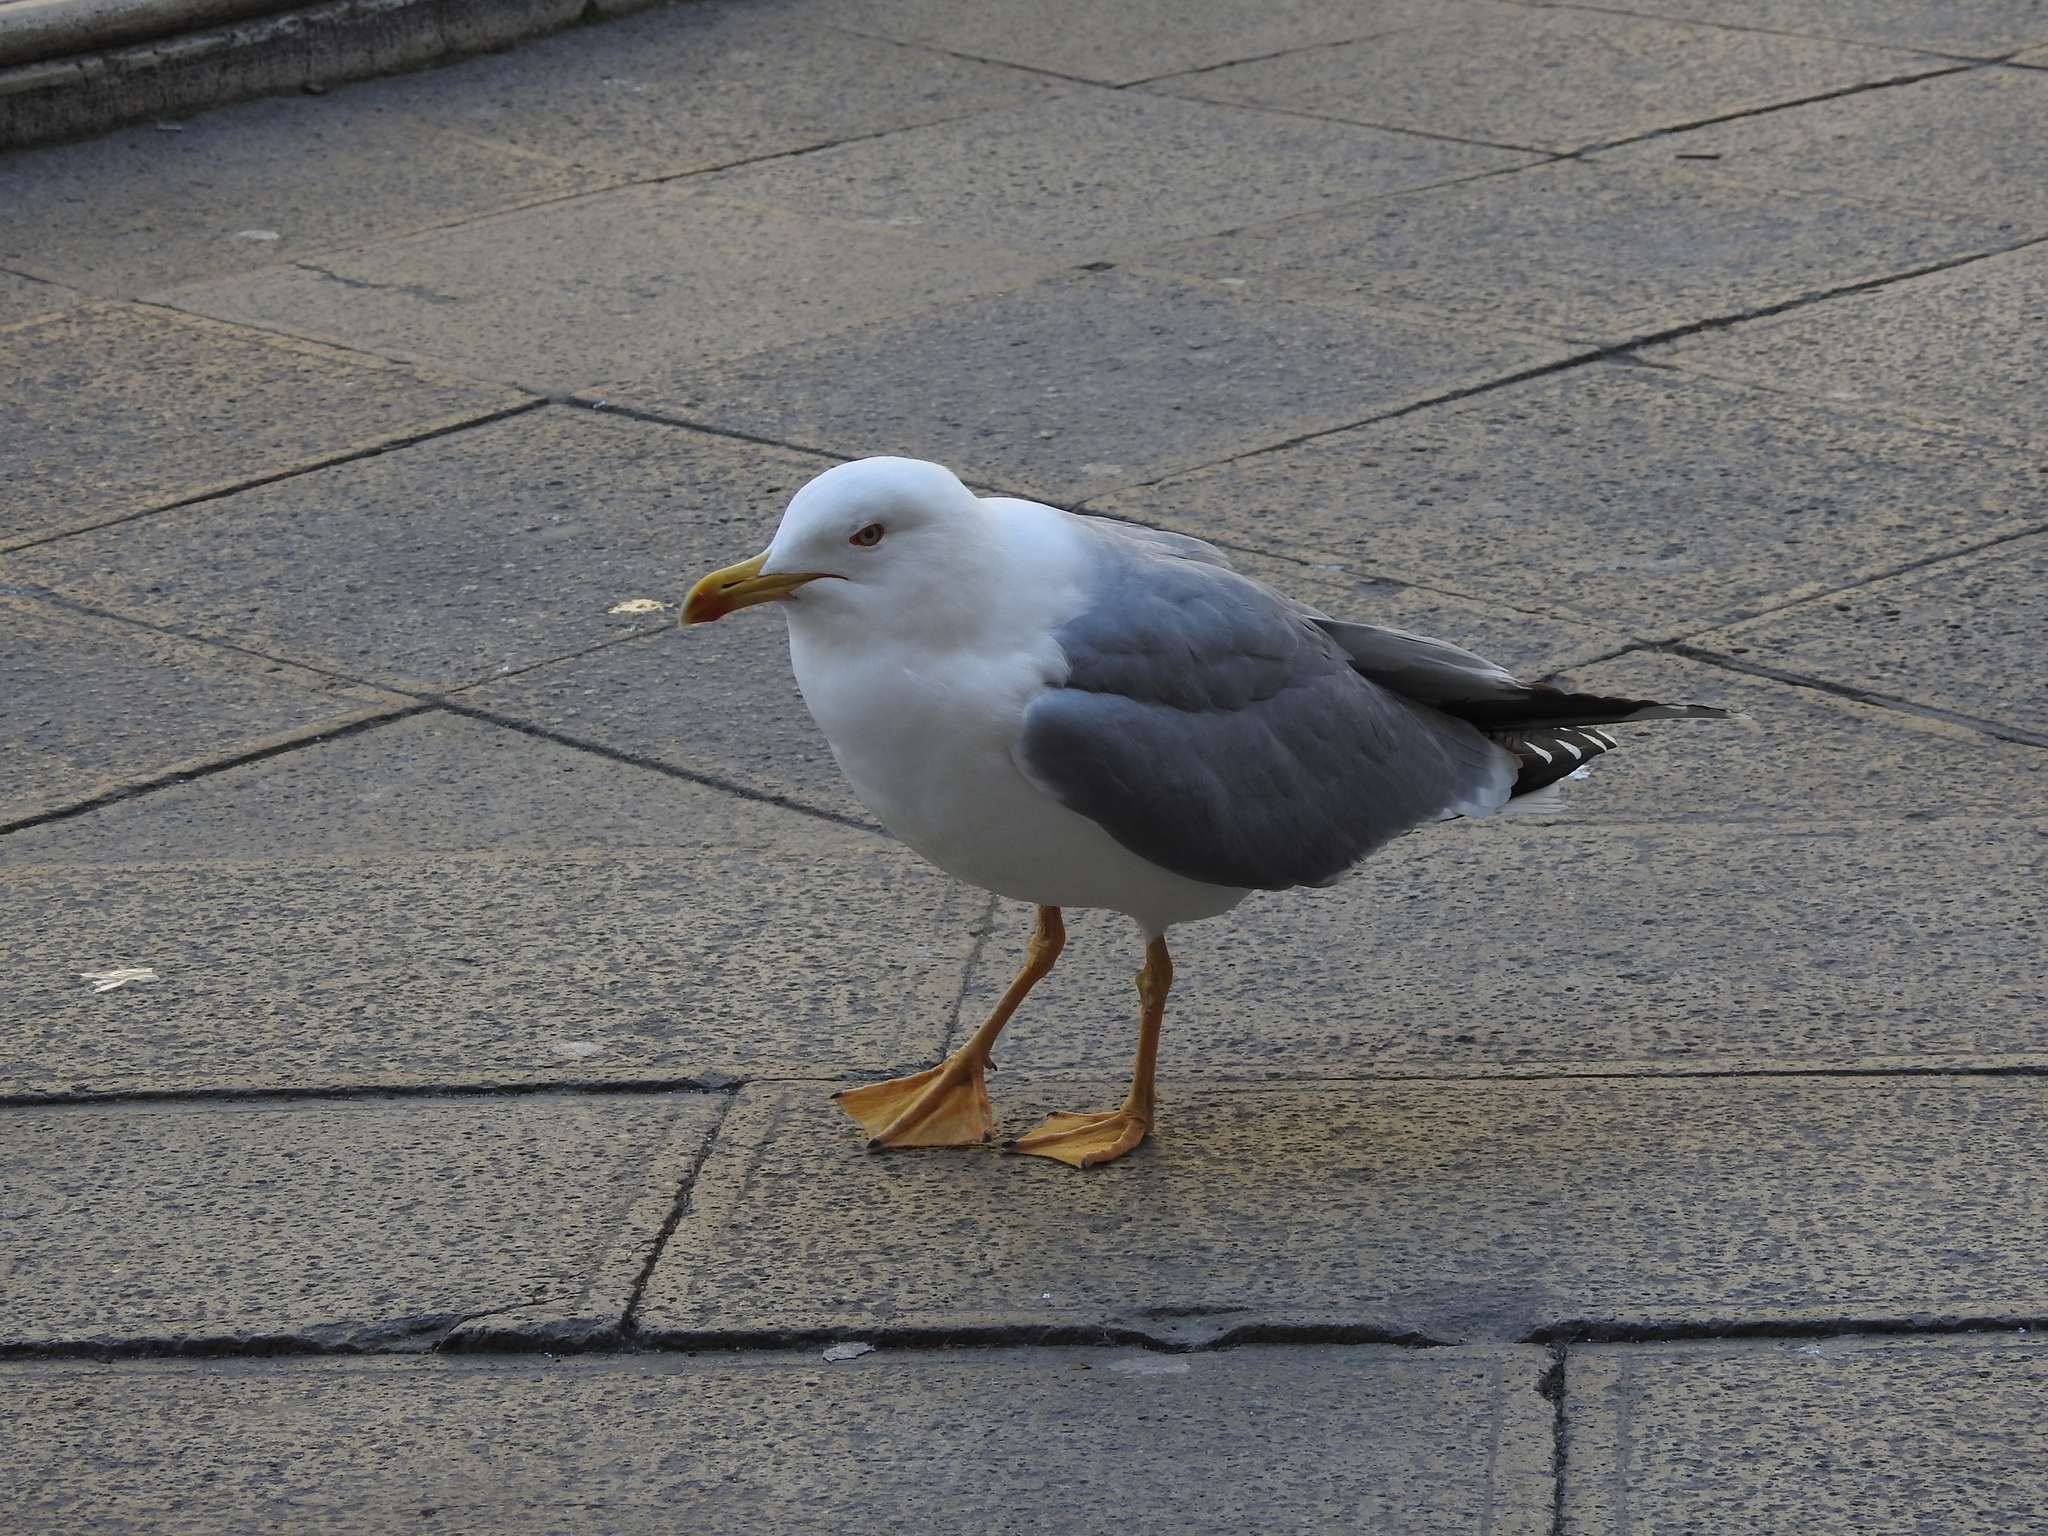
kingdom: Animalia
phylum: Chordata
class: Aves
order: Charadriiformes
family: Laridae
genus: Larus
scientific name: Larus michahellis
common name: Yellow-legged gull
